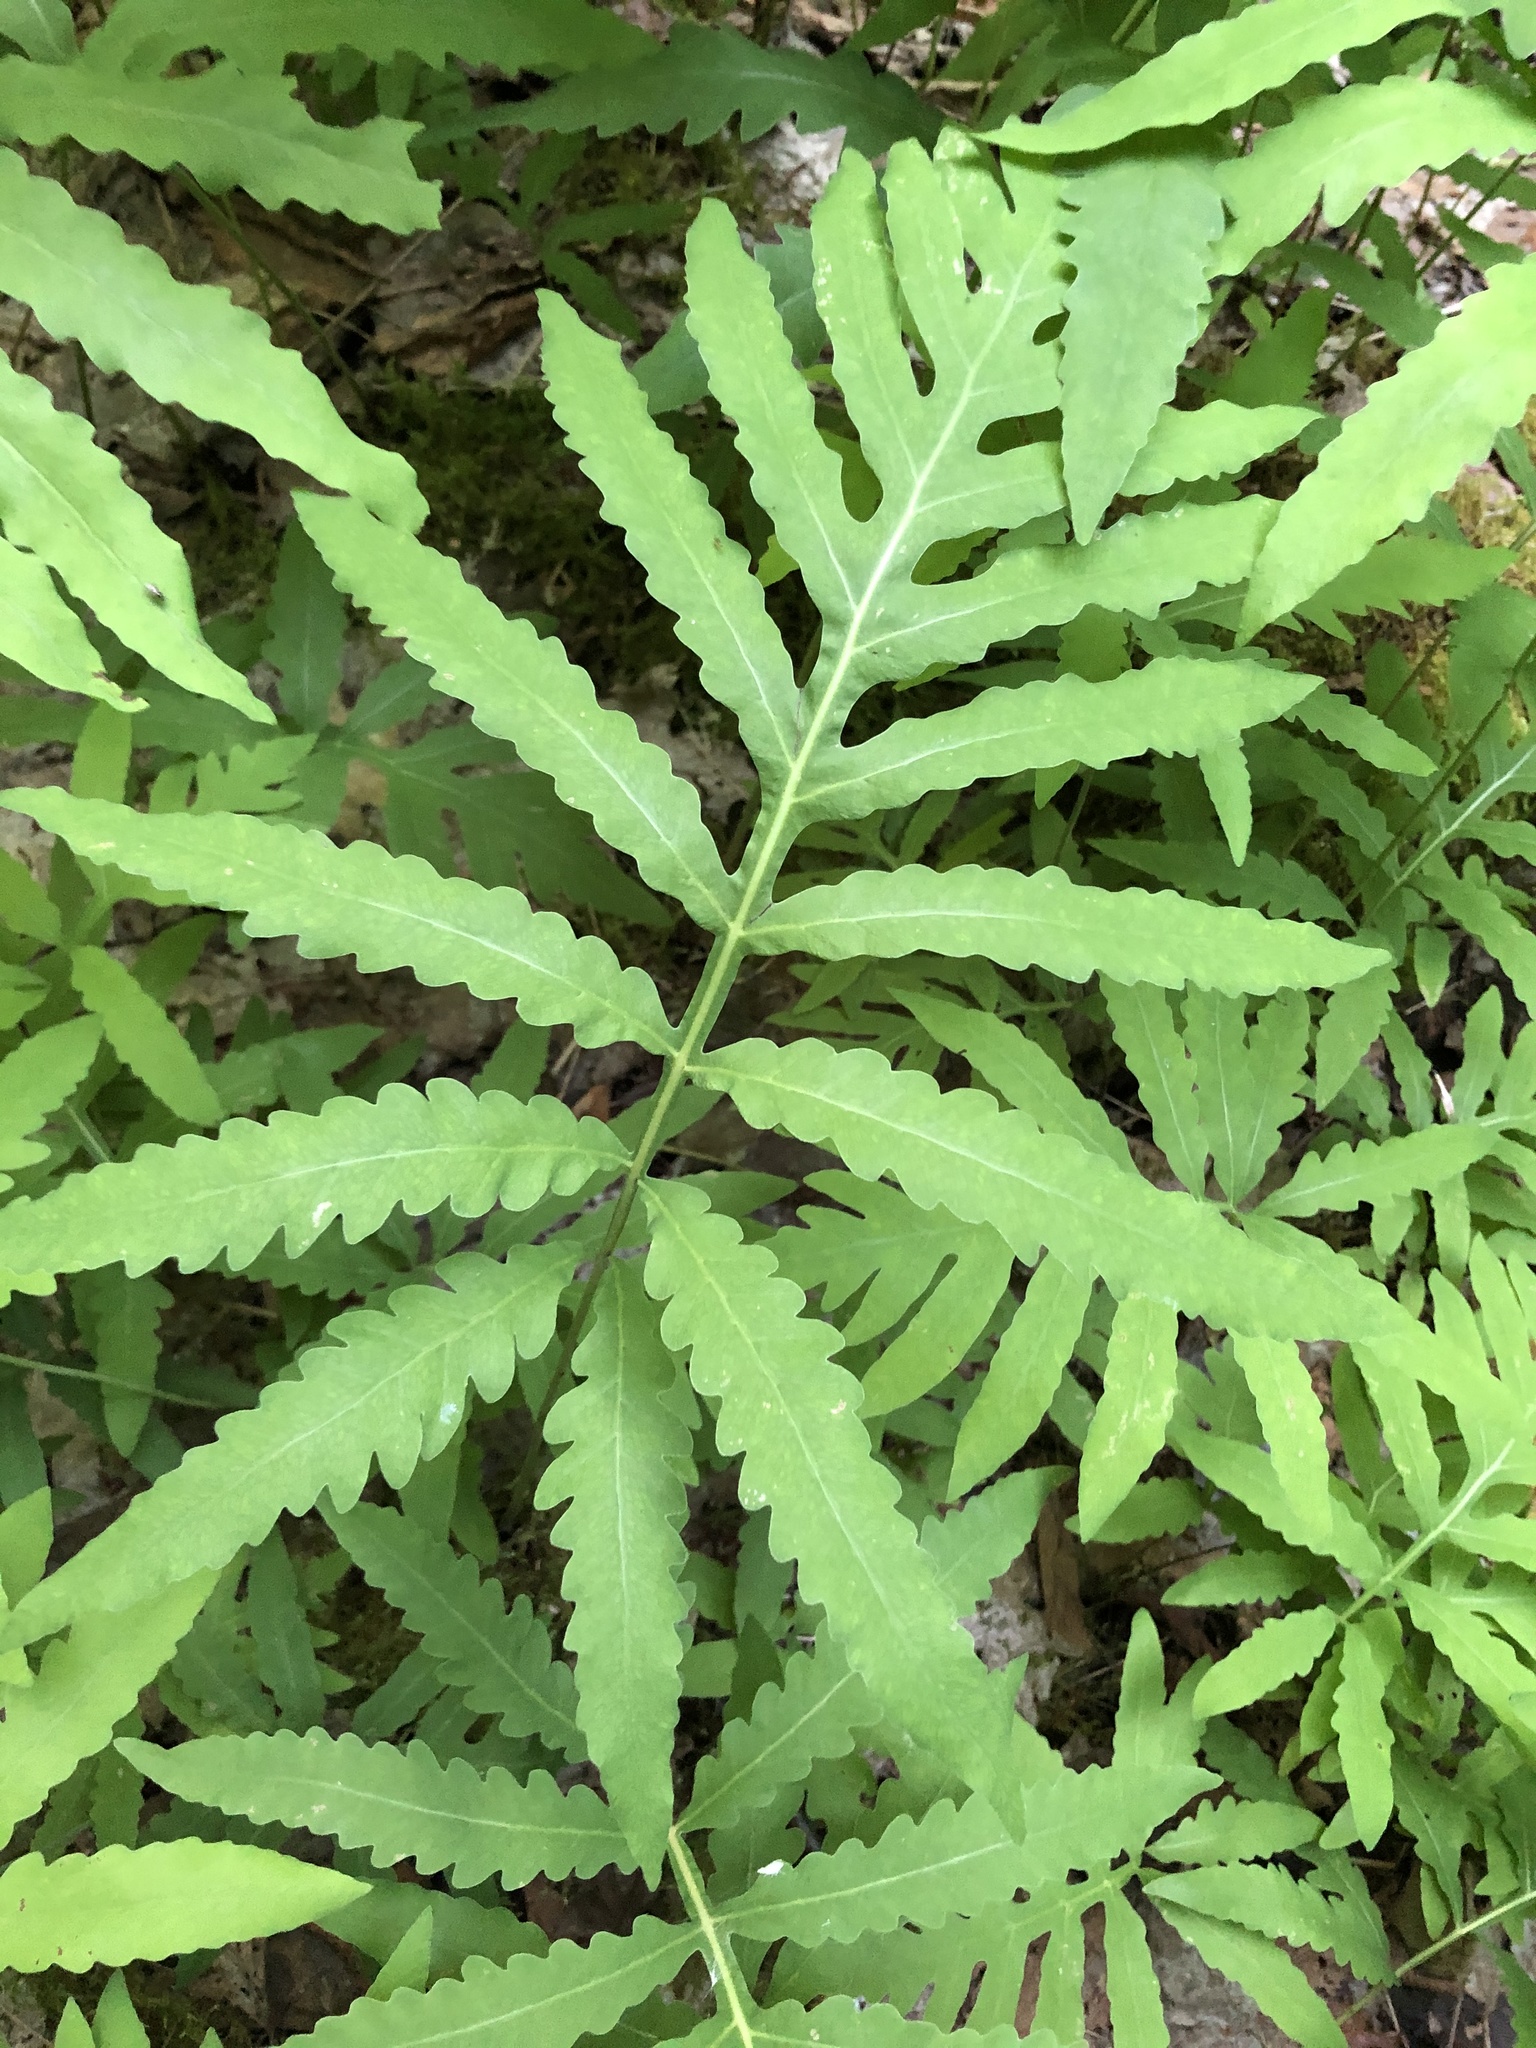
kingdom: Plantae
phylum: Tracheophyta
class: Polypodiopsida
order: Polypodiales
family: Onocleaceae
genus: Onoclea
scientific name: Onoclea sensibilis
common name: Sensitive fern
